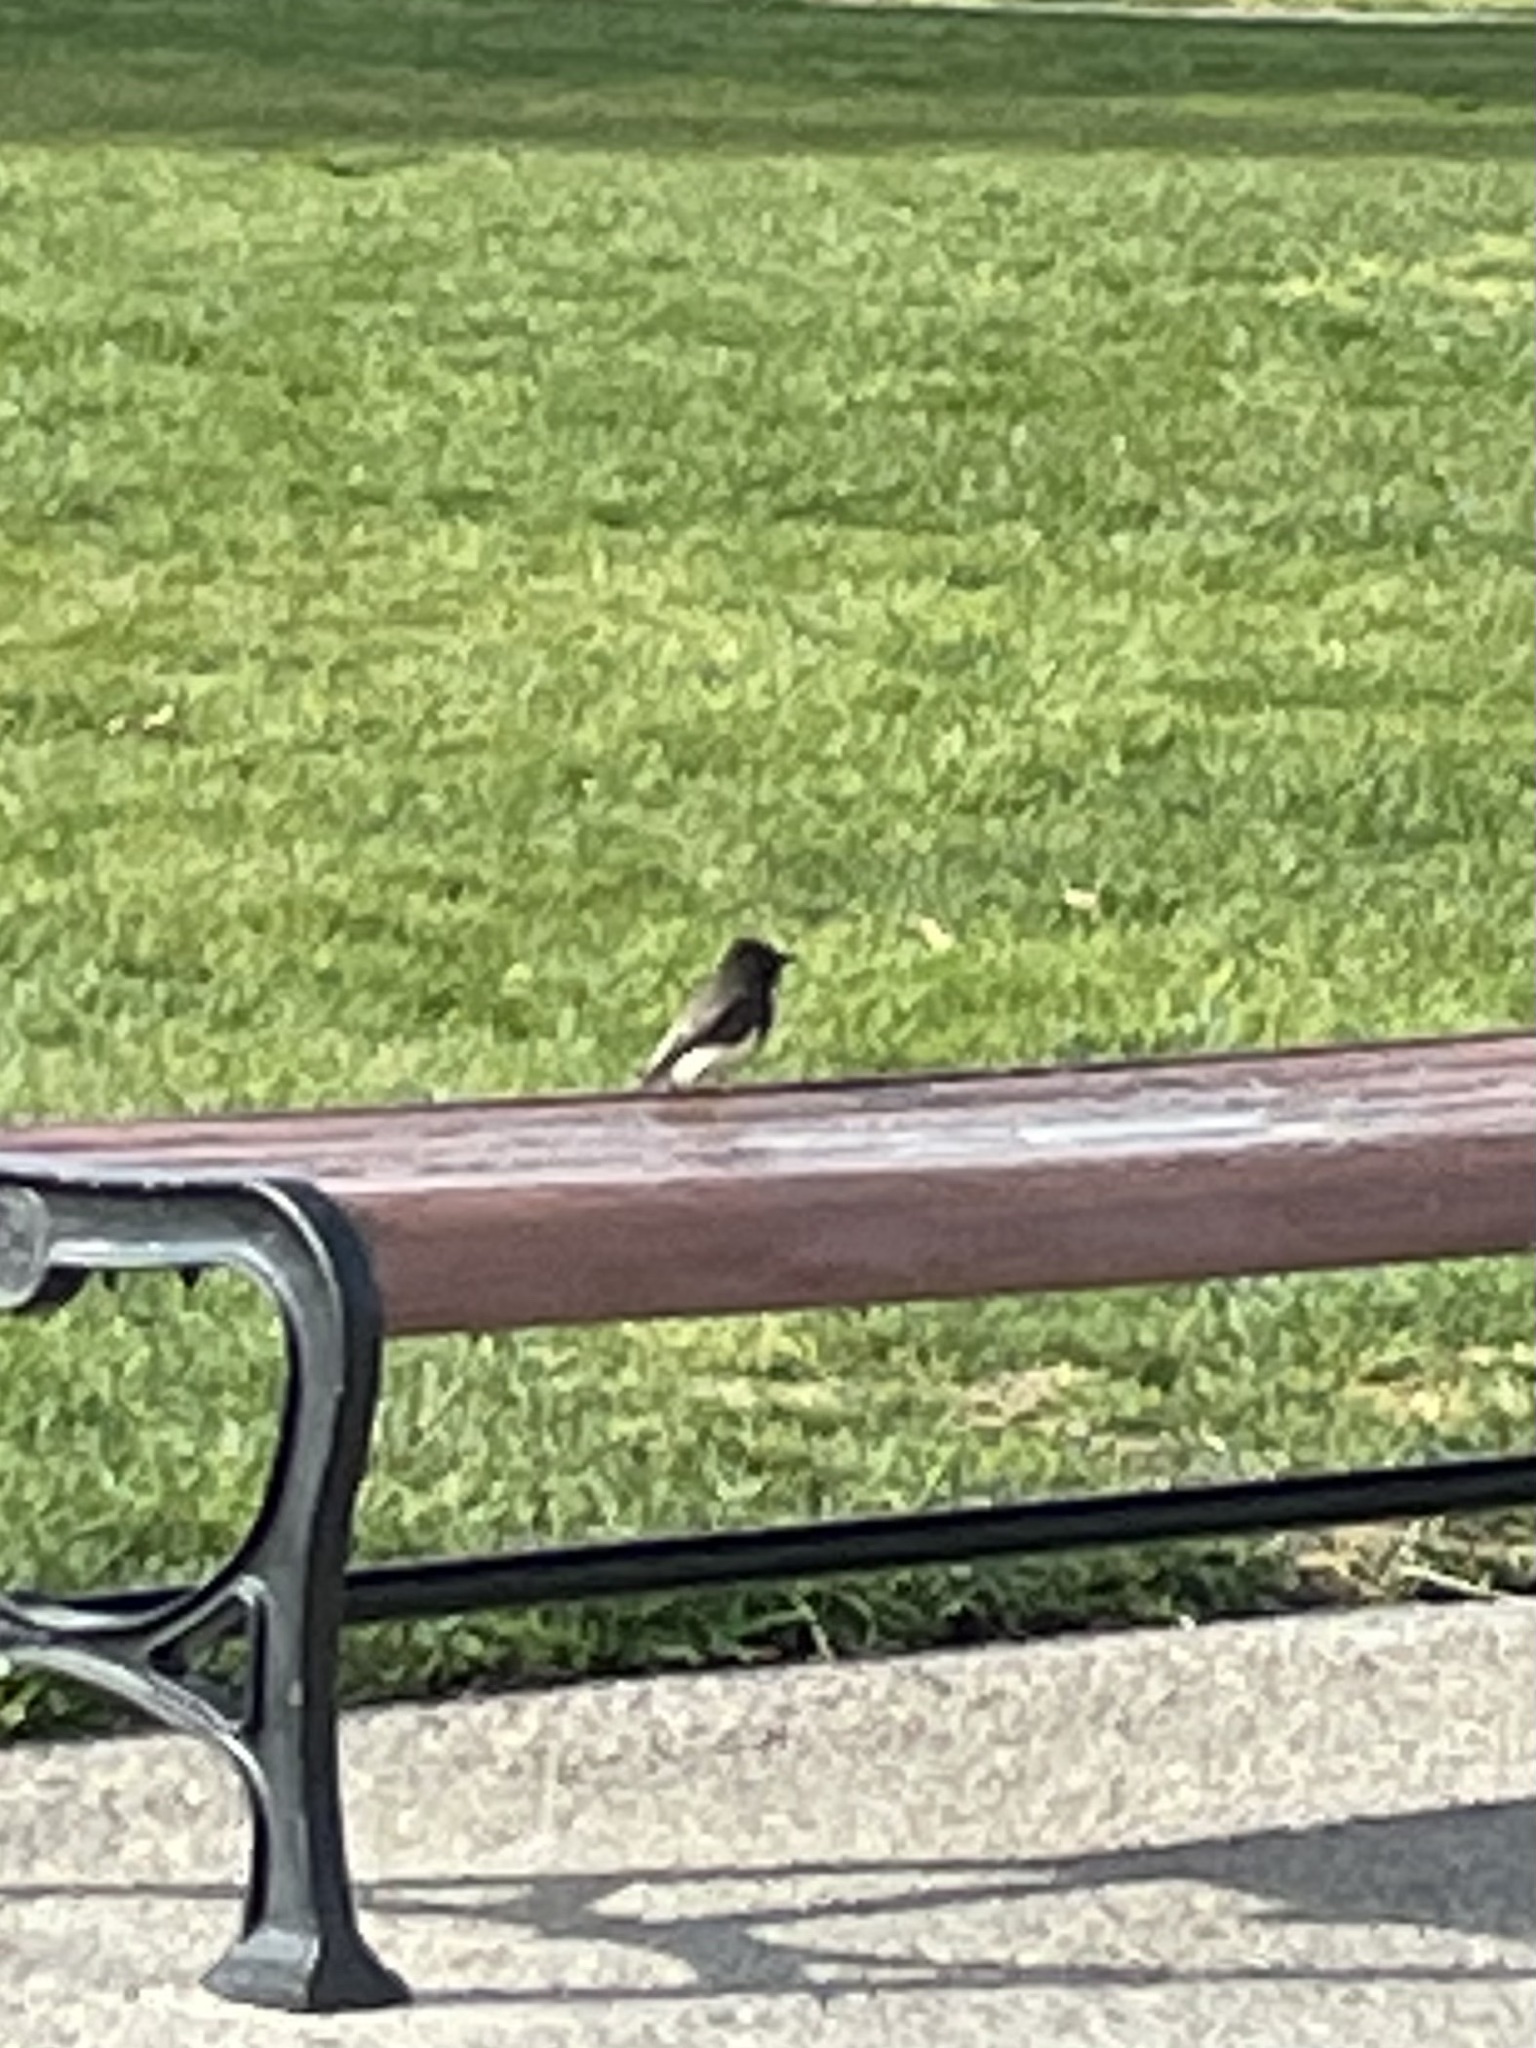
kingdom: Animalia
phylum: Chordata
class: Aves
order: Passeriformes
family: Tyrannidae
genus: Sayornis
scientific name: Sayornis nigricans
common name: Black phoebe
